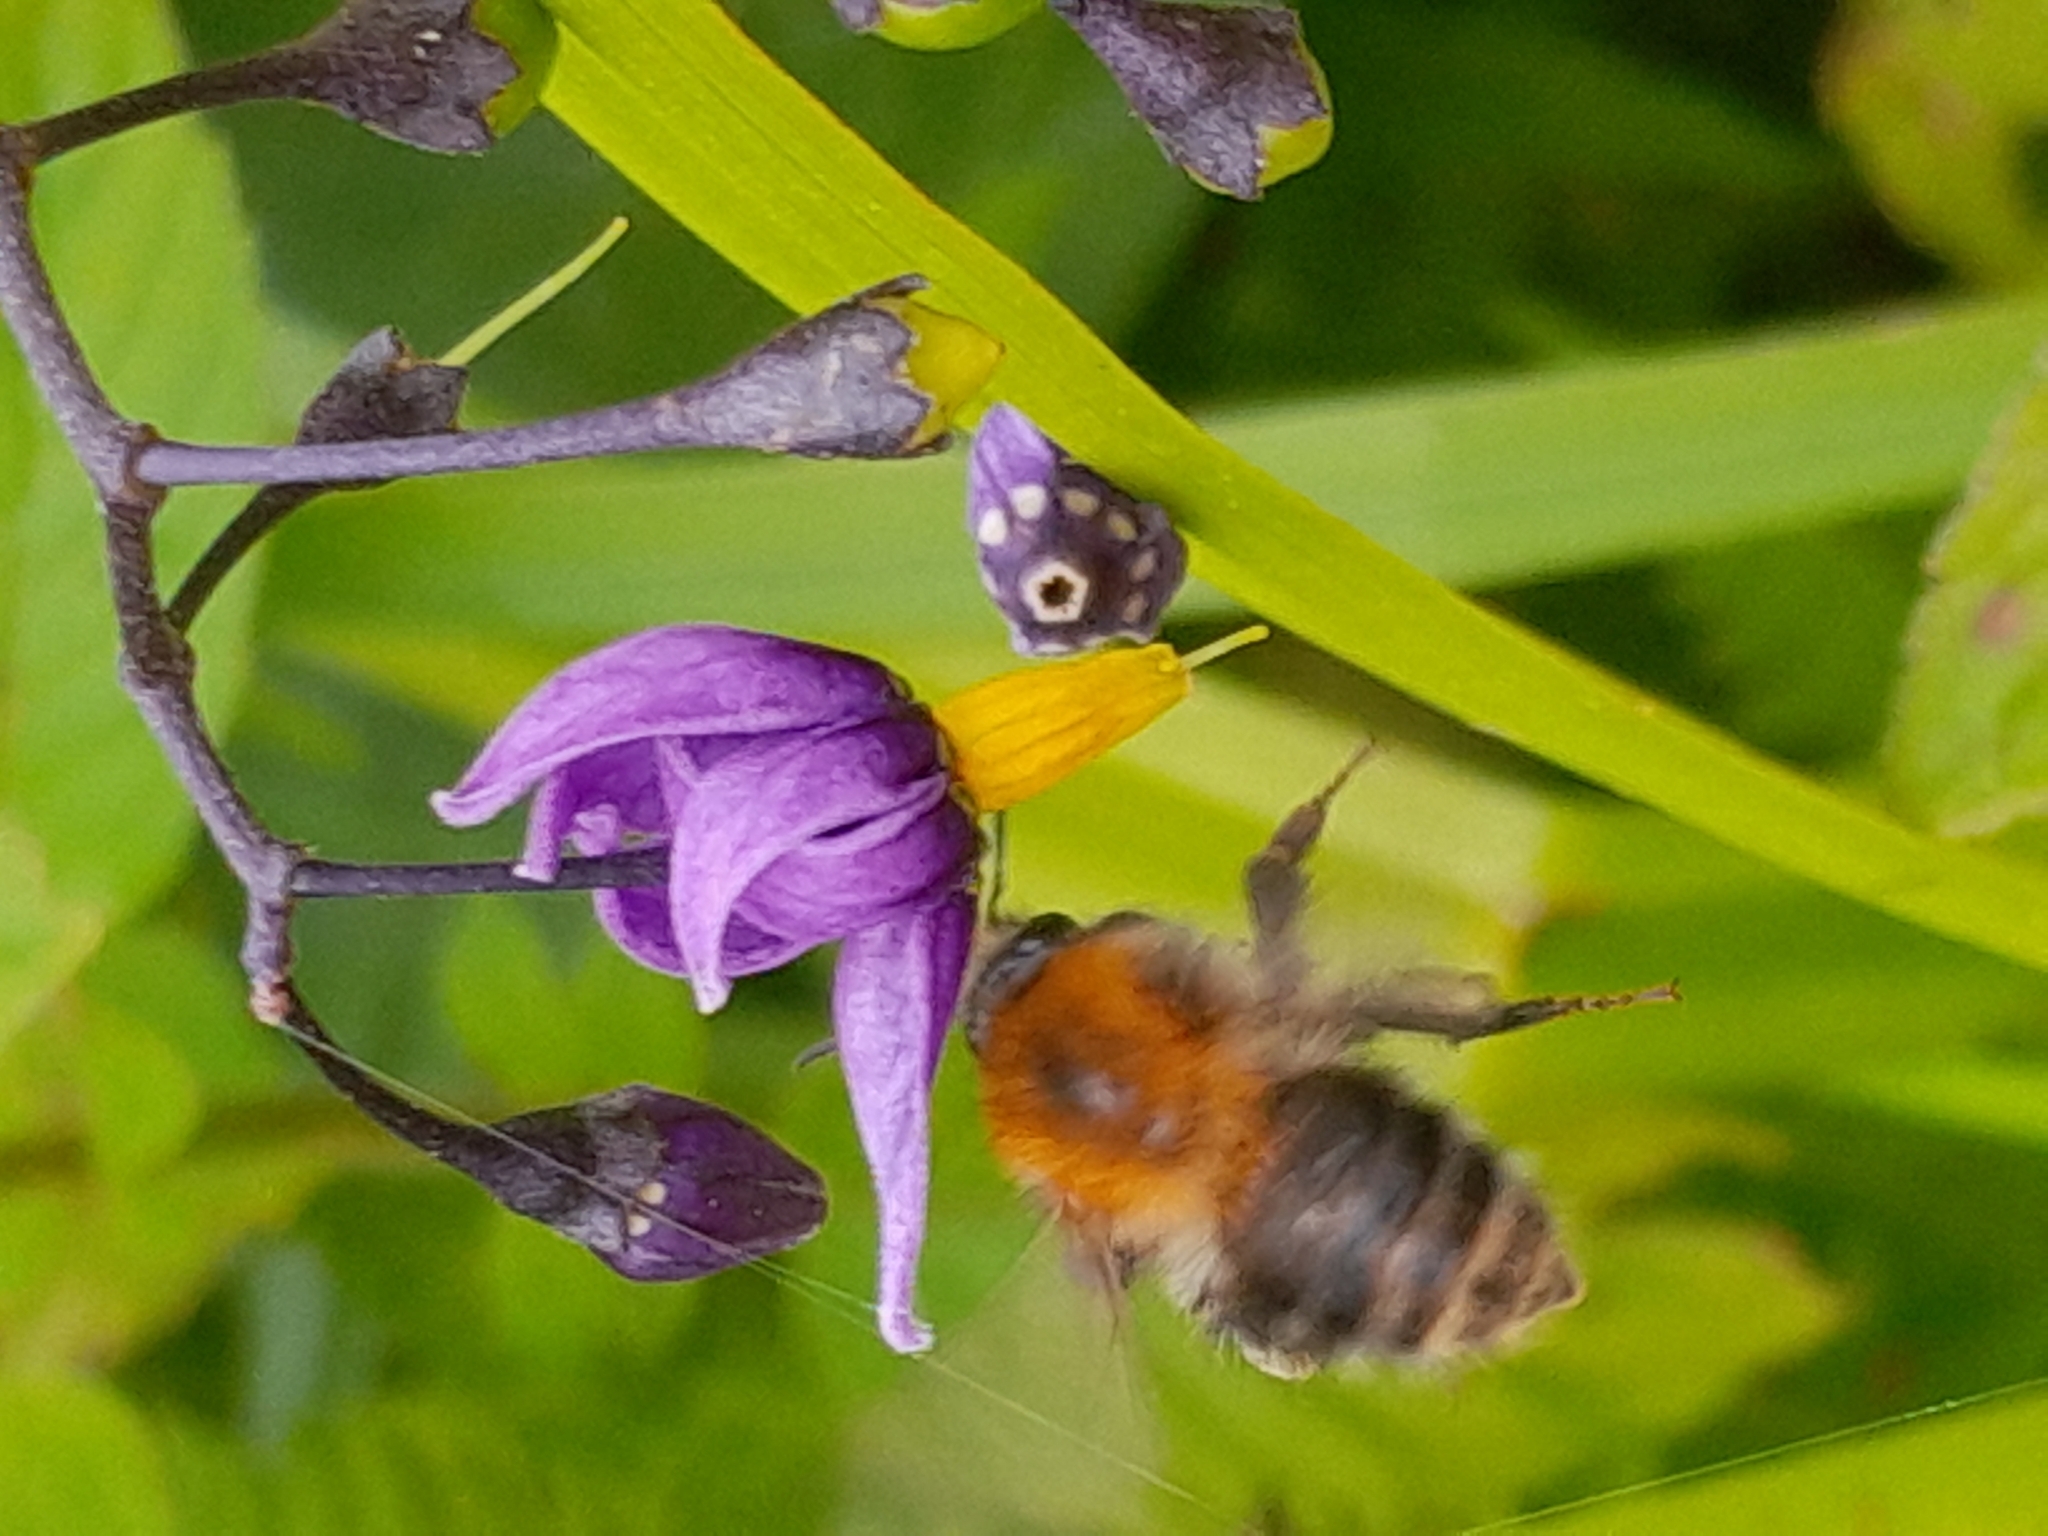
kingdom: Animalia
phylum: Arthropoda
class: Insecta
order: Hymenoptera
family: Apidae
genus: Bombus
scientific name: Bombus pascuorum
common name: Common carder bee
